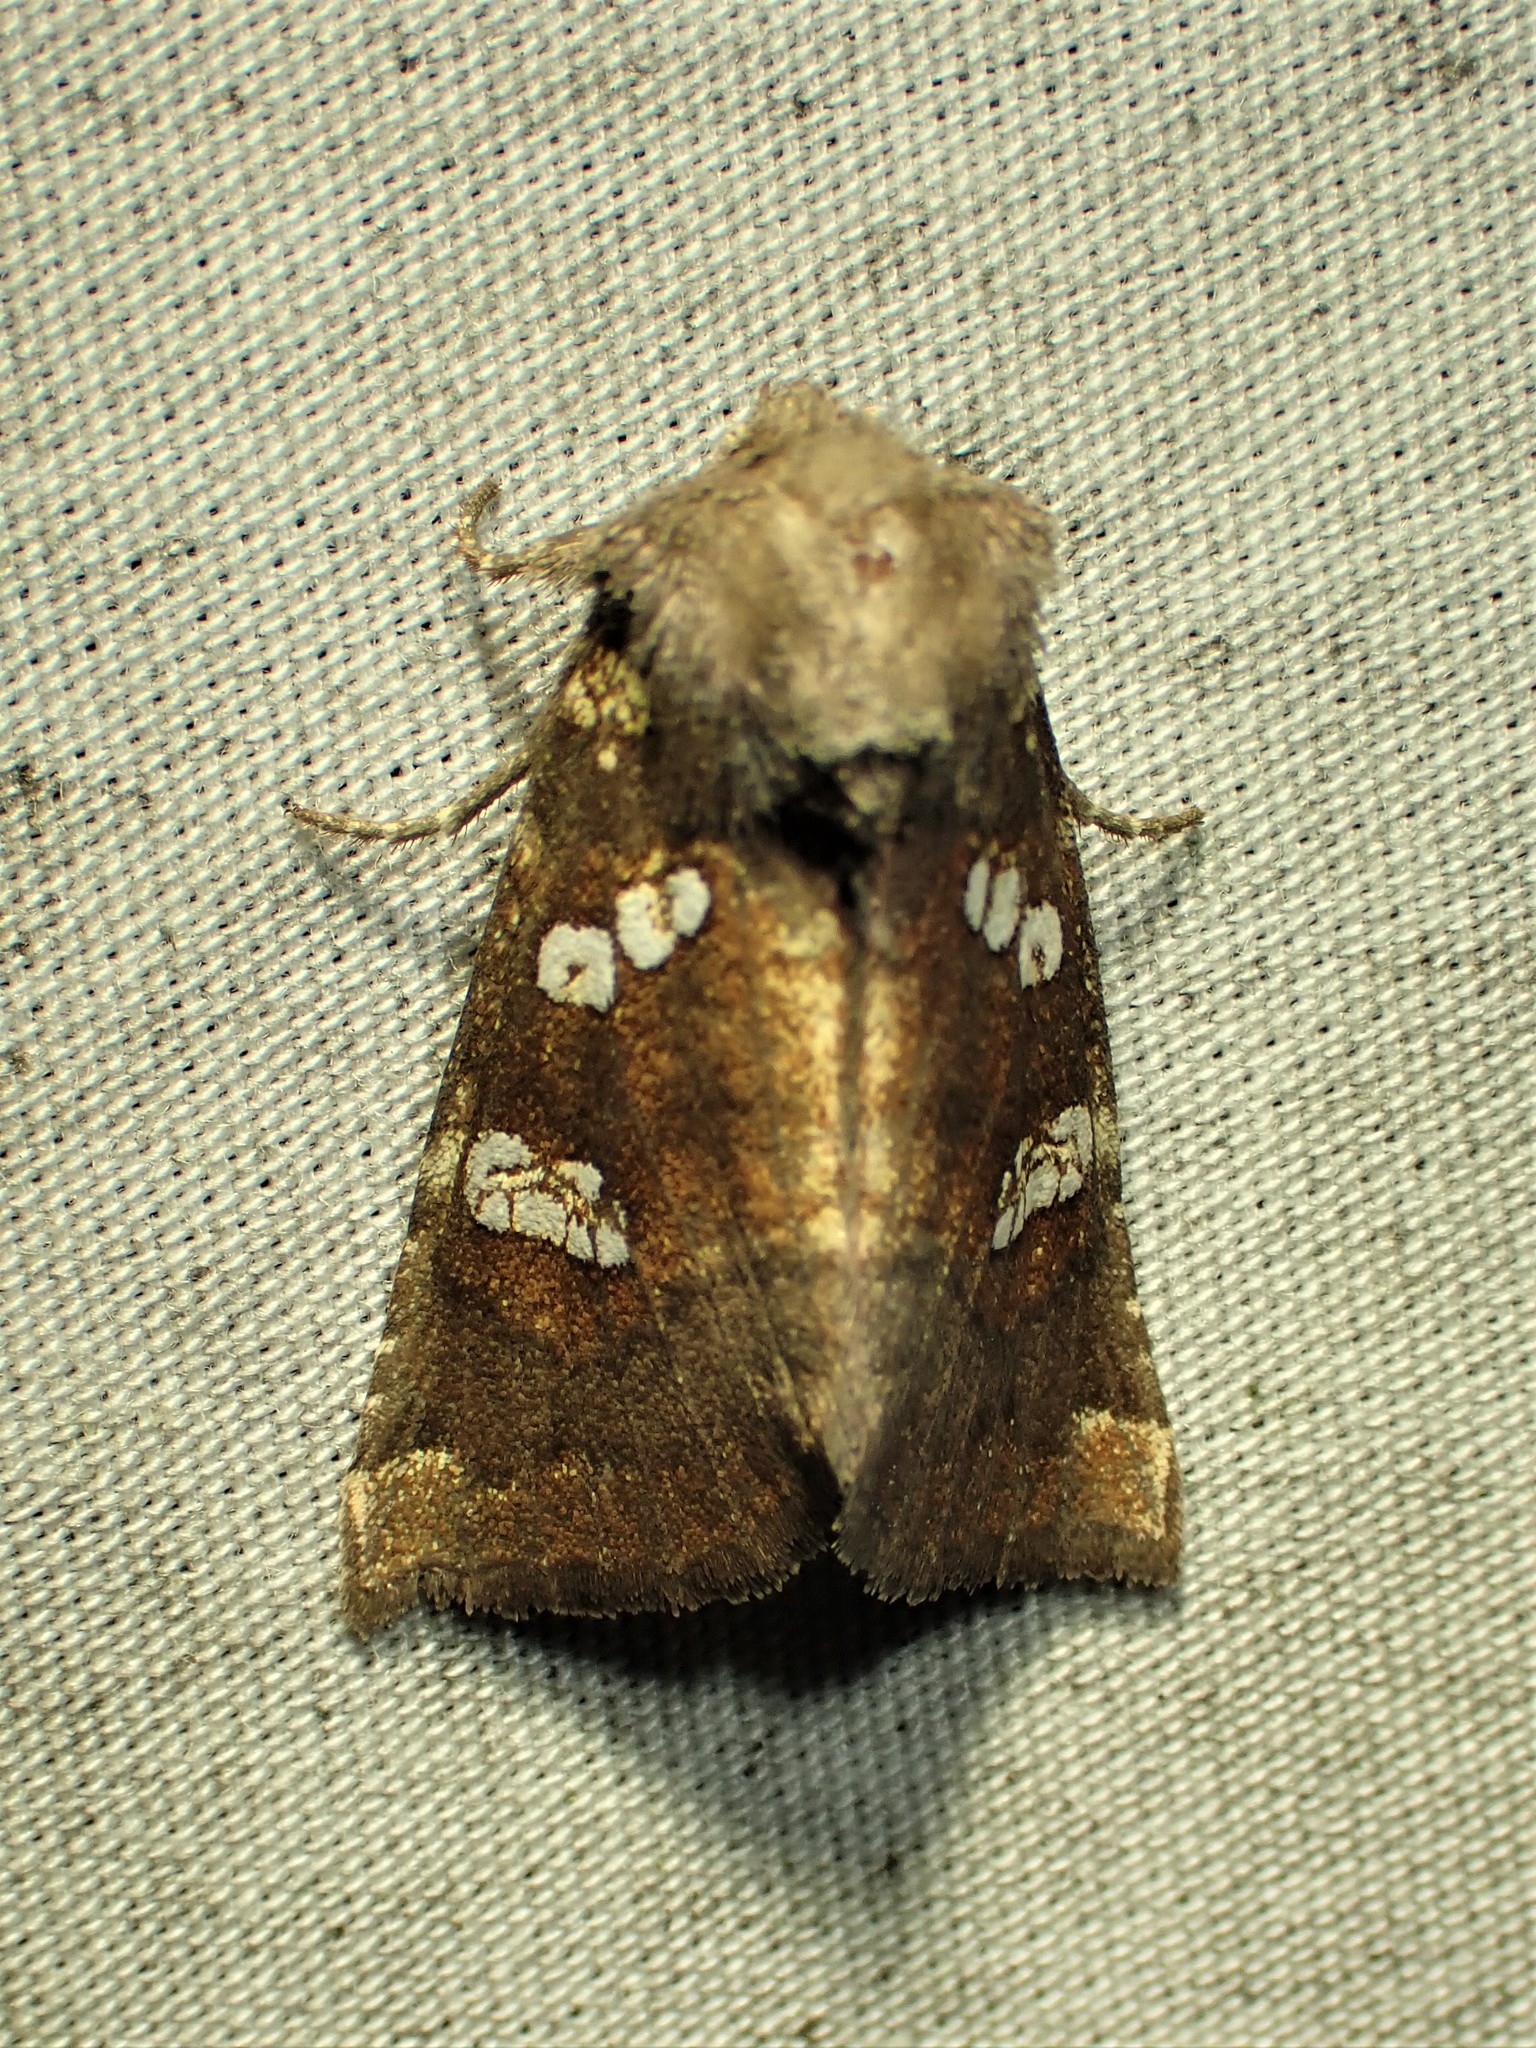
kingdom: Animalia
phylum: Arthropoda
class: Insecta
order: Lepidoptera
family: Noctuidae
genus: Papaipema
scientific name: Papaipema unimoda
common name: Meadow rue borer moth
